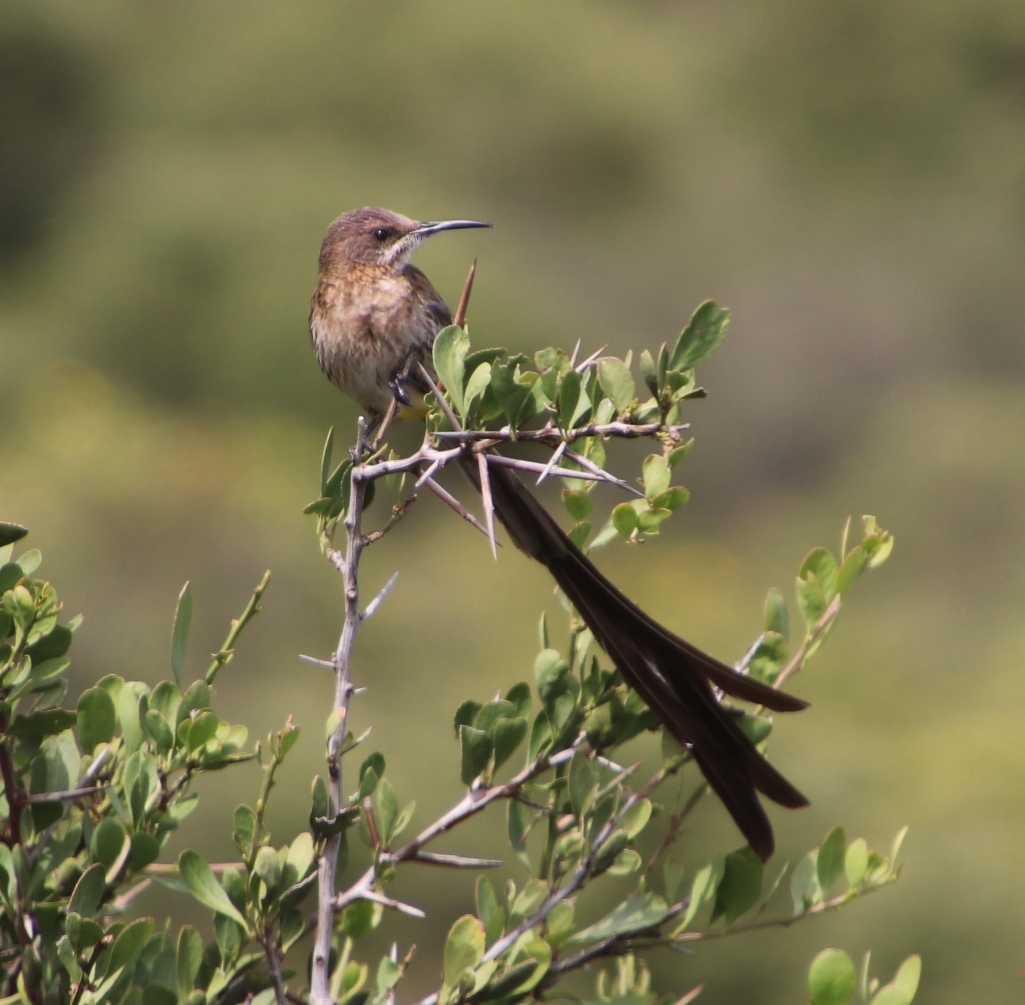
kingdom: Animalia
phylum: Chordata
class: Aves
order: Passeriformes
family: Promeropidae
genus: Promerops
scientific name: Promerops cafer
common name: Cape sugarbird
